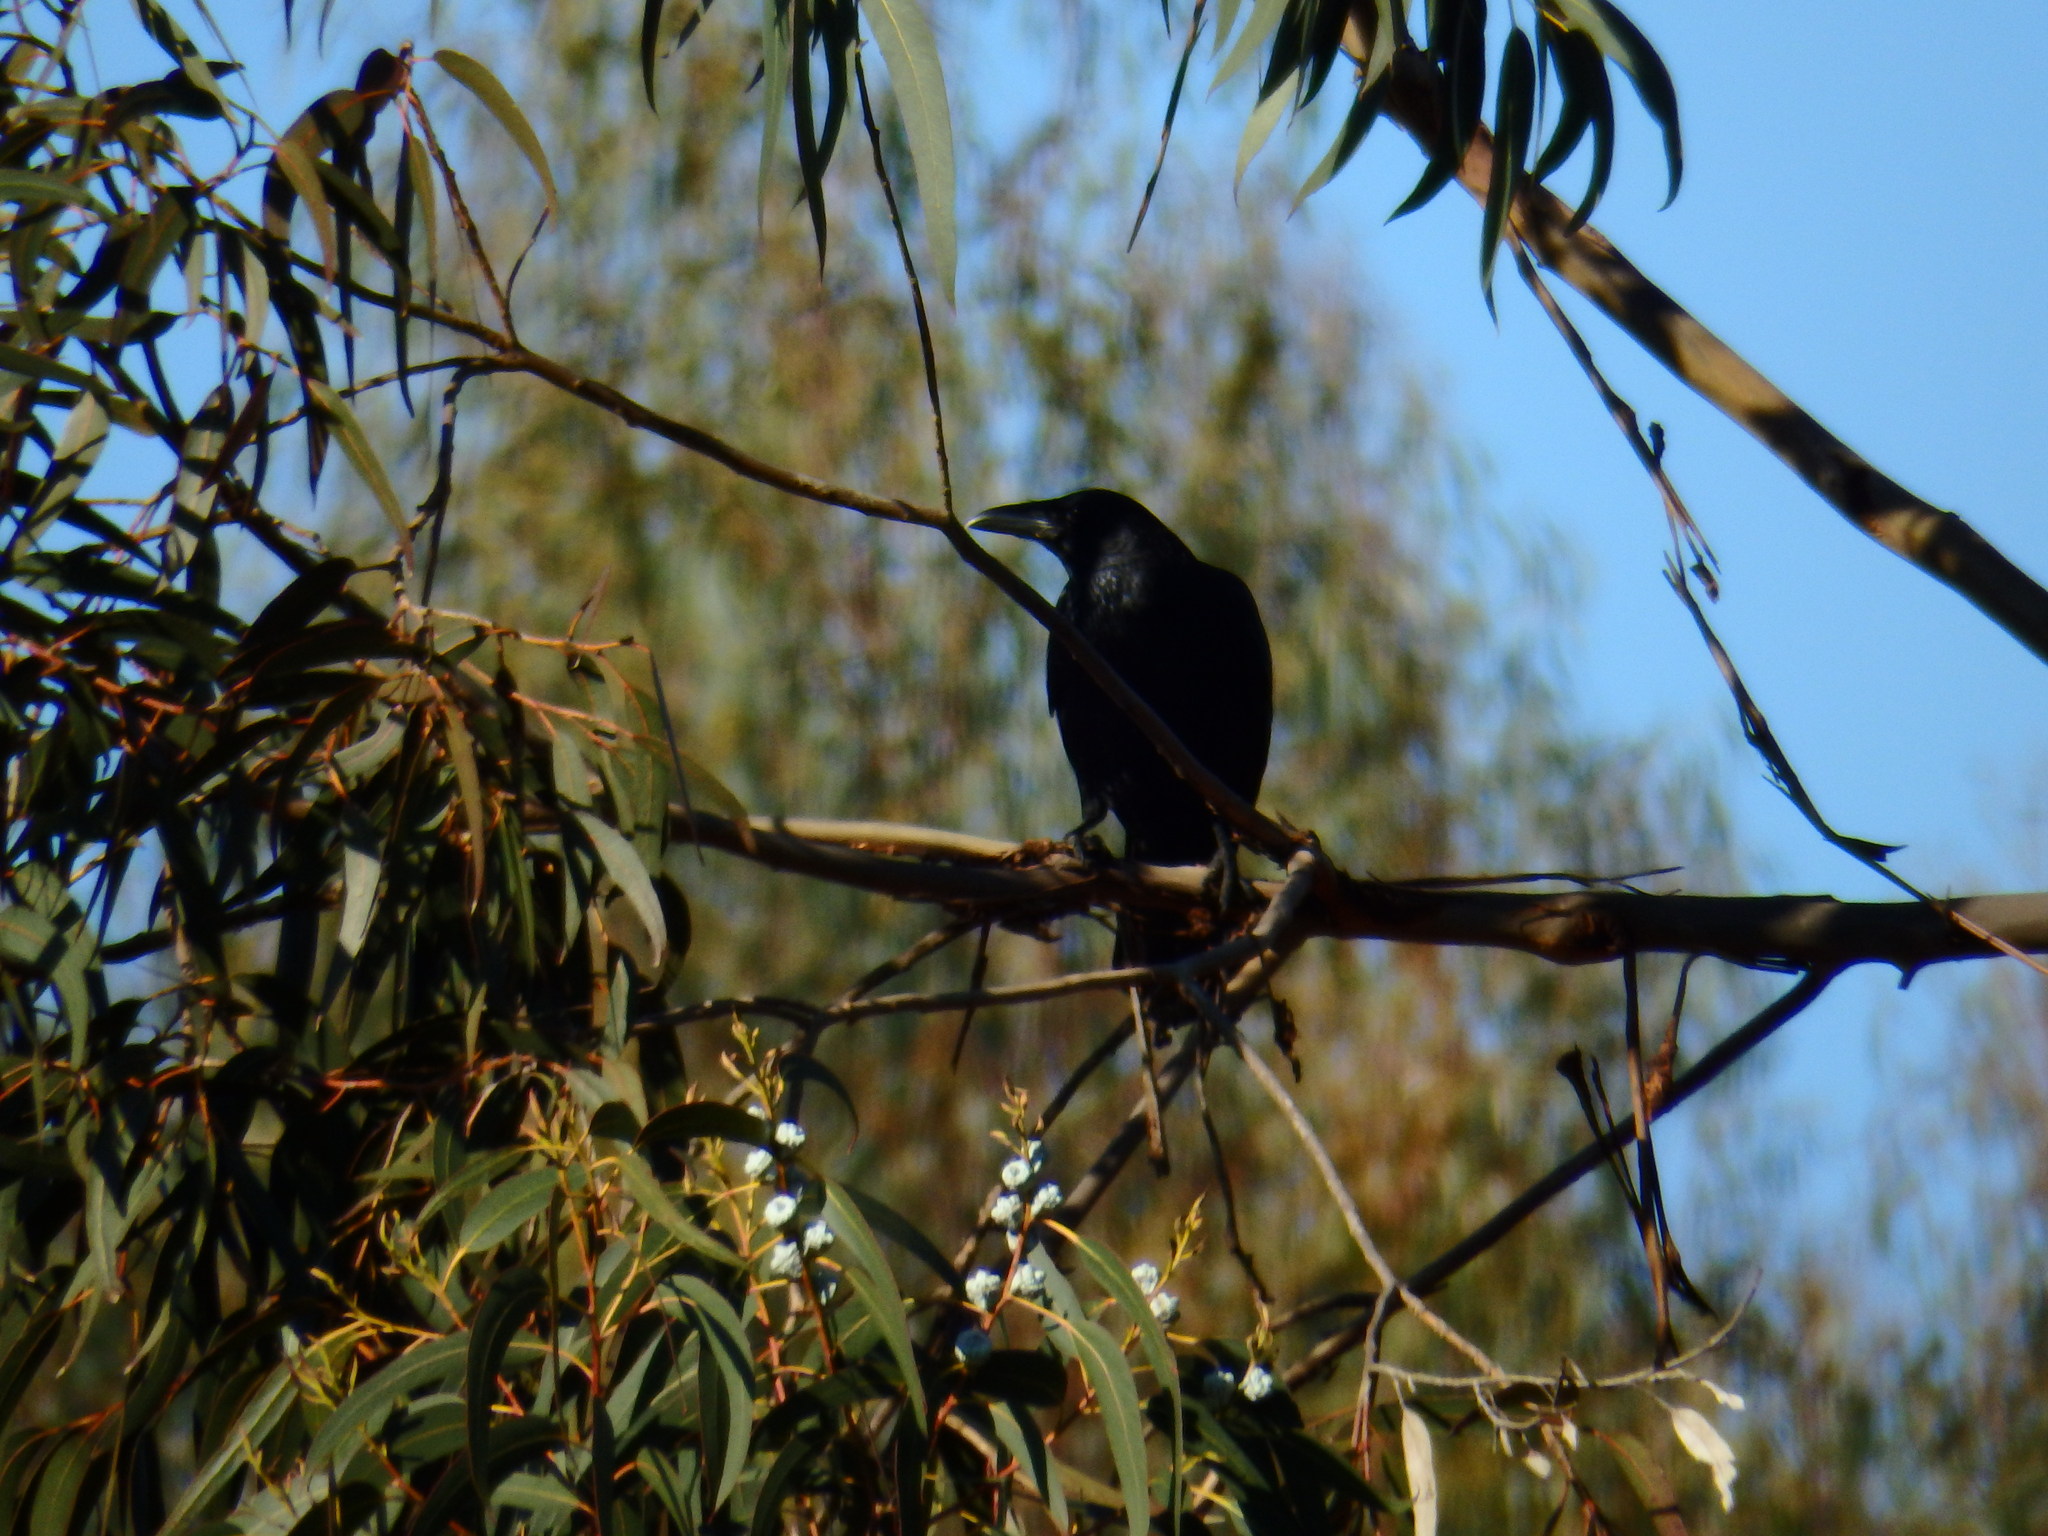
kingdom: Animalia
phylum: Chordata
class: Aves
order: Passeriformes
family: Corvidae
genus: Corvus
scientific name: Corvus corone
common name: Carrion crow
